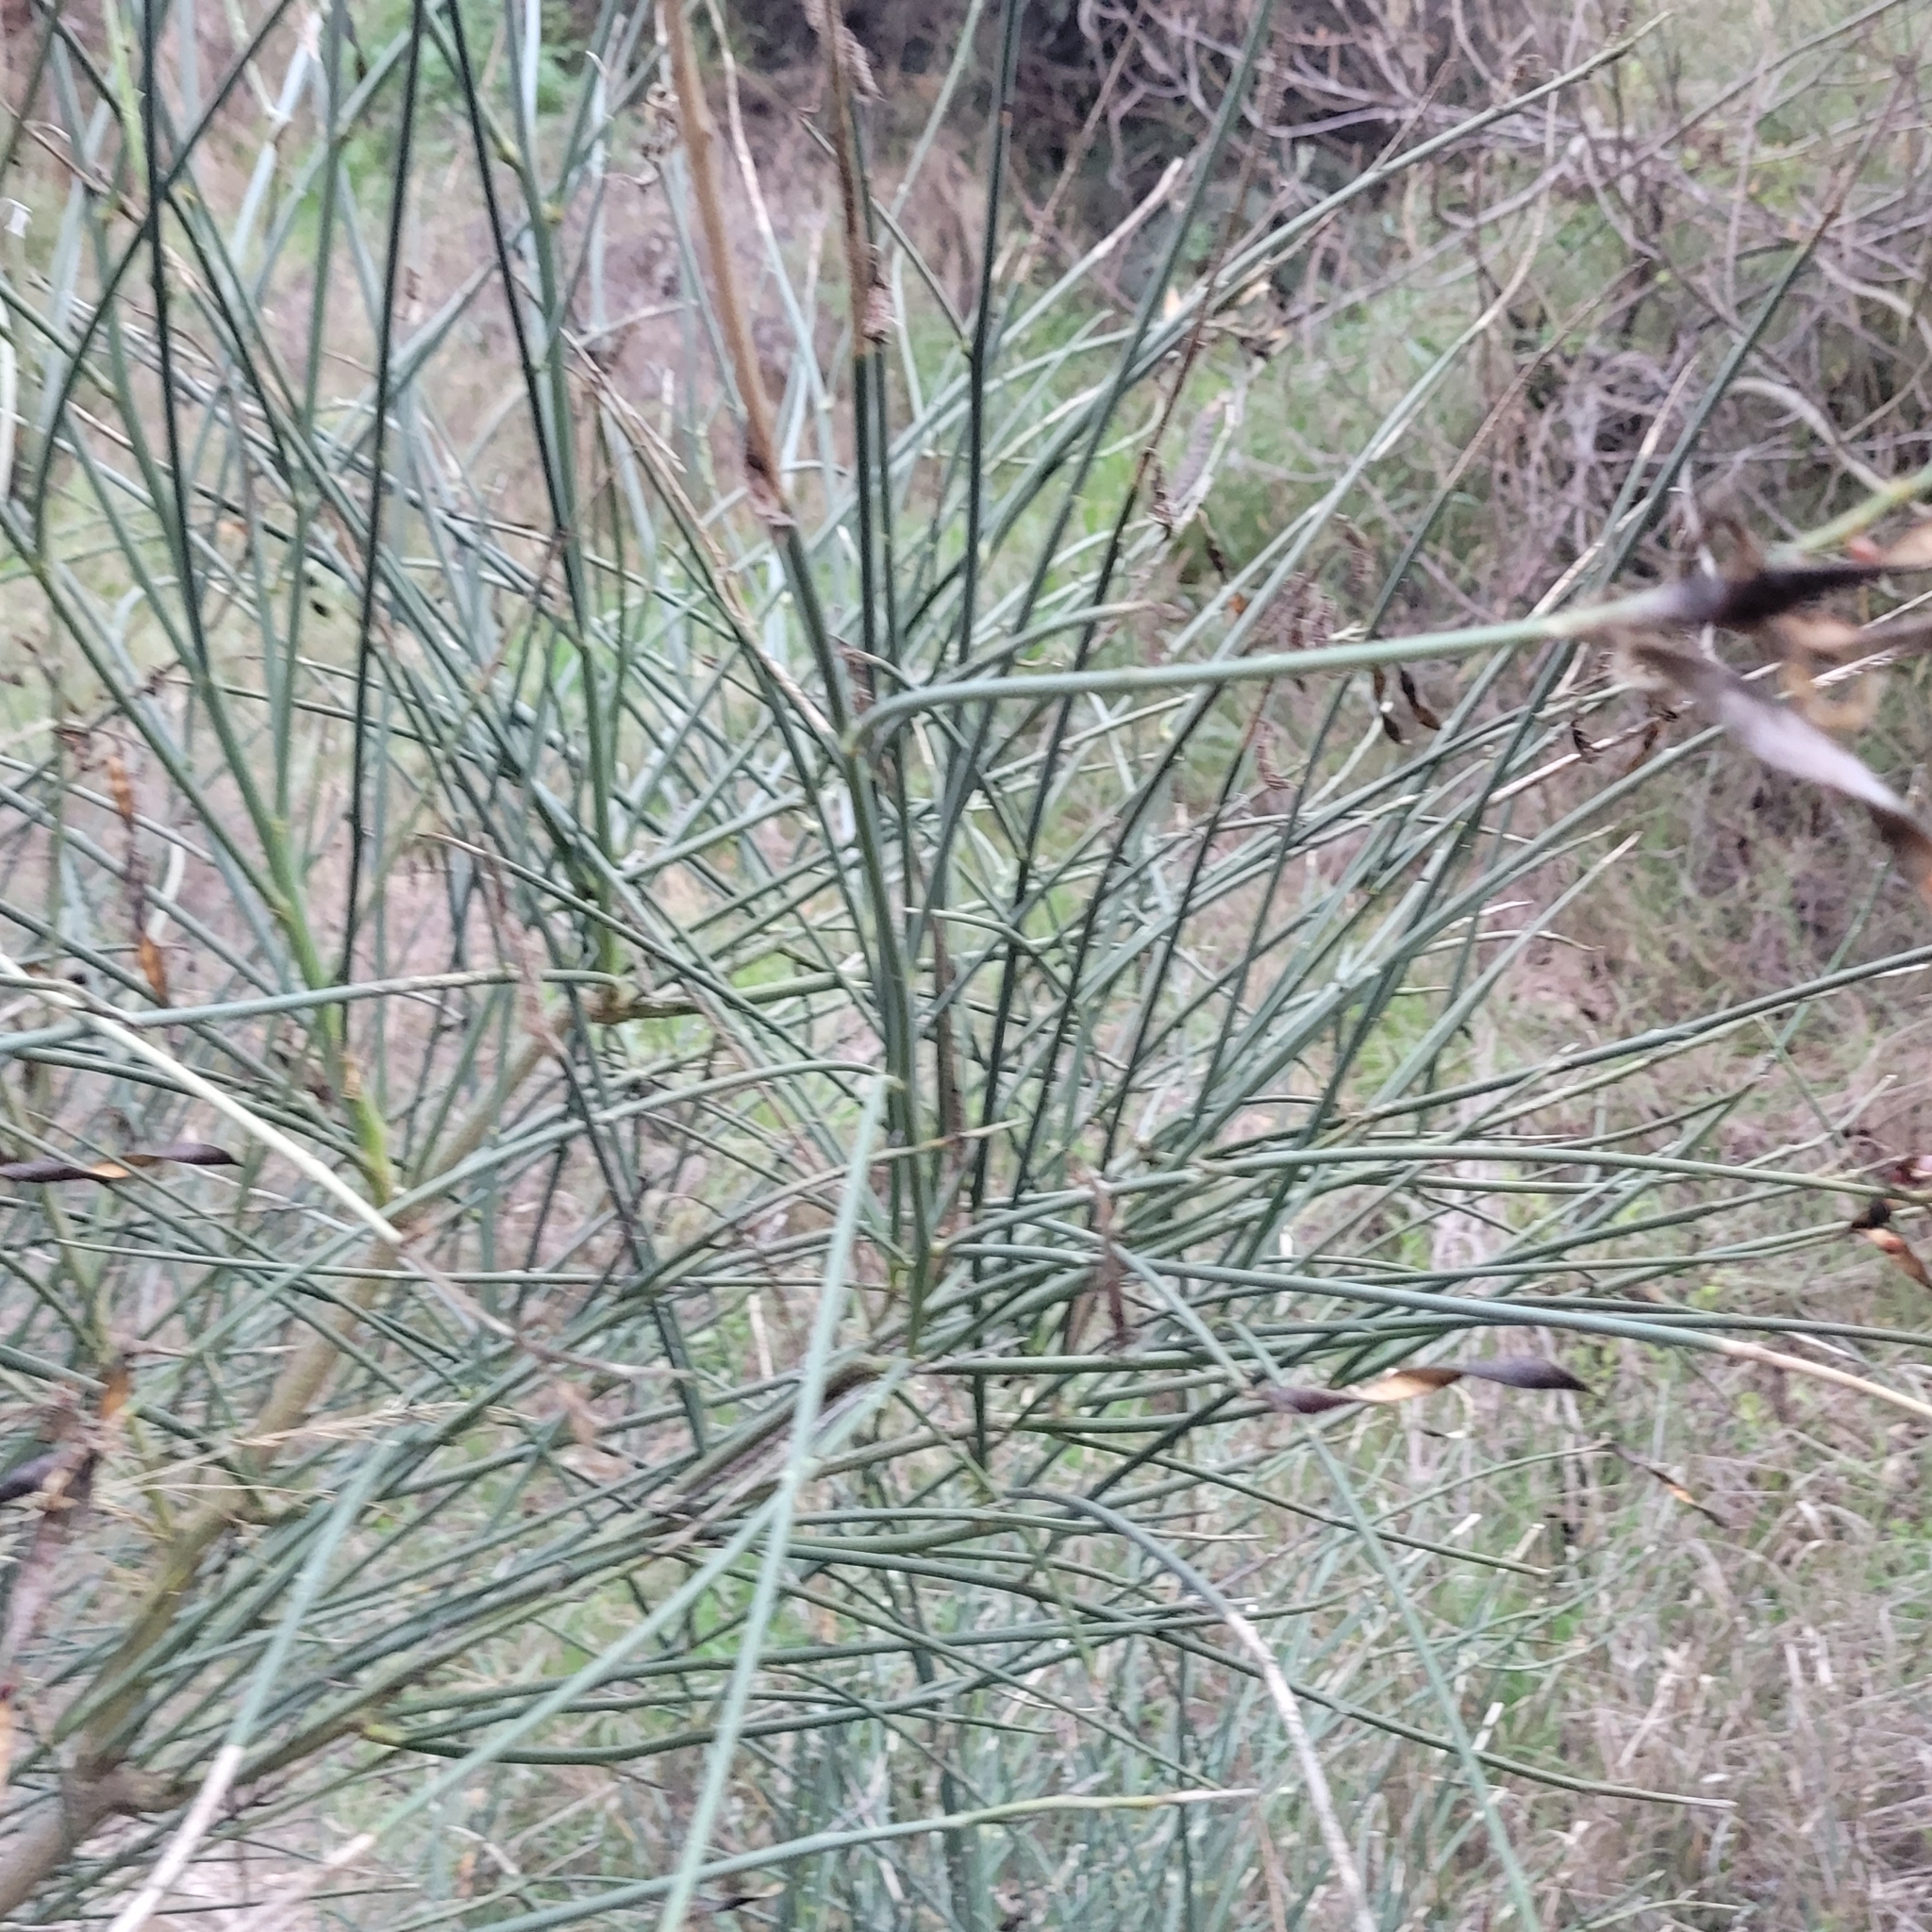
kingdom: Plantae
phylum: Tracheophyta
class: Magnoliopsida
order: Fabales
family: Fabaceae
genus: Spartium
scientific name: Spartium junceum
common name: Spanish broom
